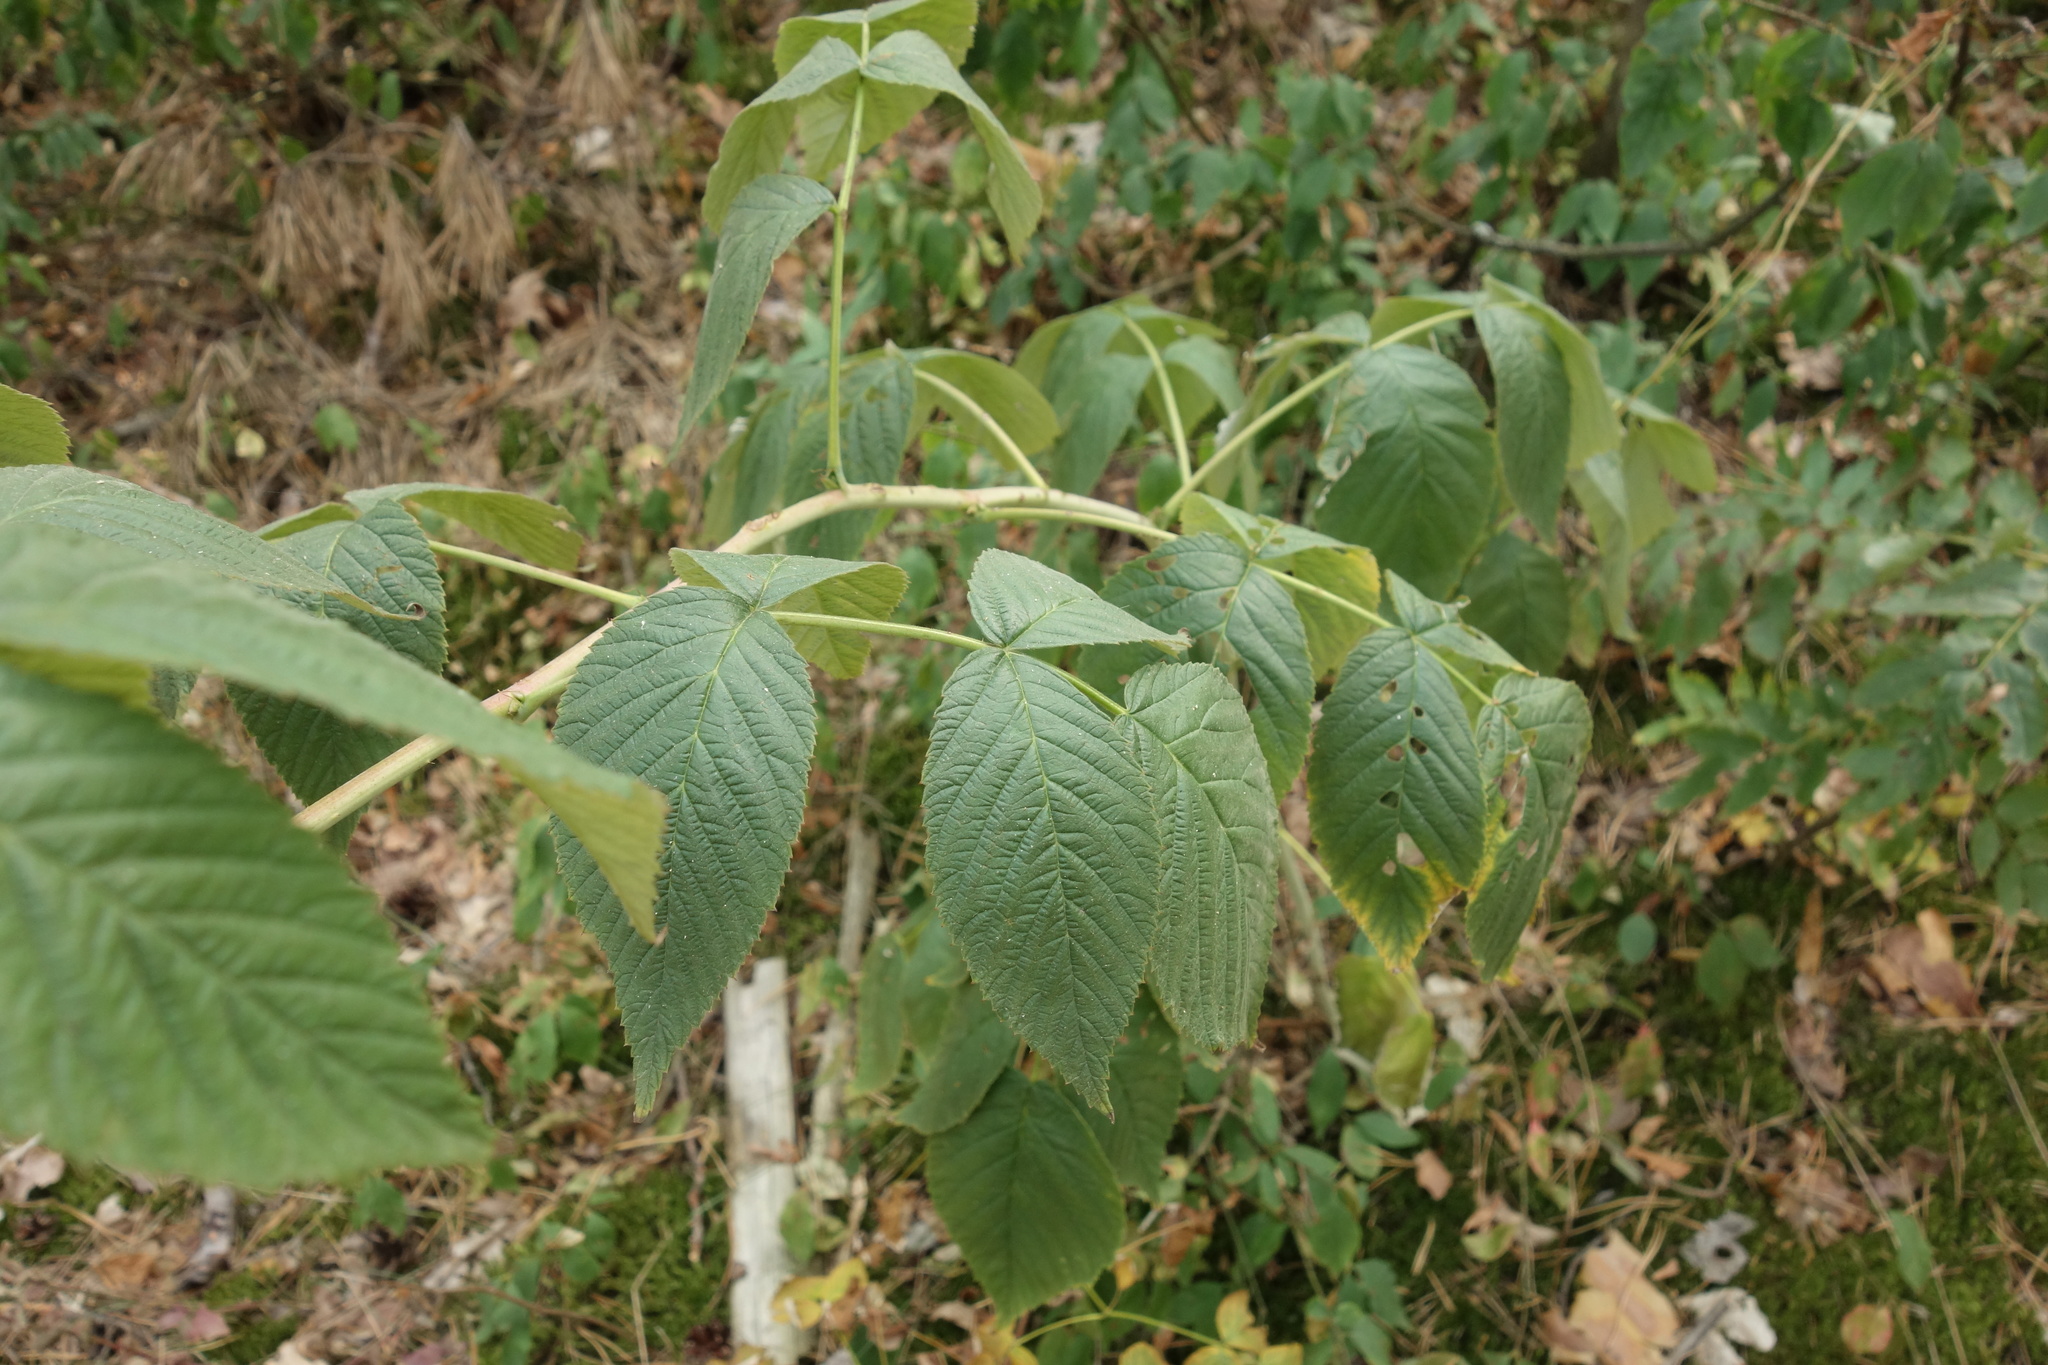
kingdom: Plantae
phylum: Tracheophyta
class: Magnoliopsida
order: Rosales
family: Rosaceae
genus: Rubus
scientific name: Rubus idaeus
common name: Raspberry
